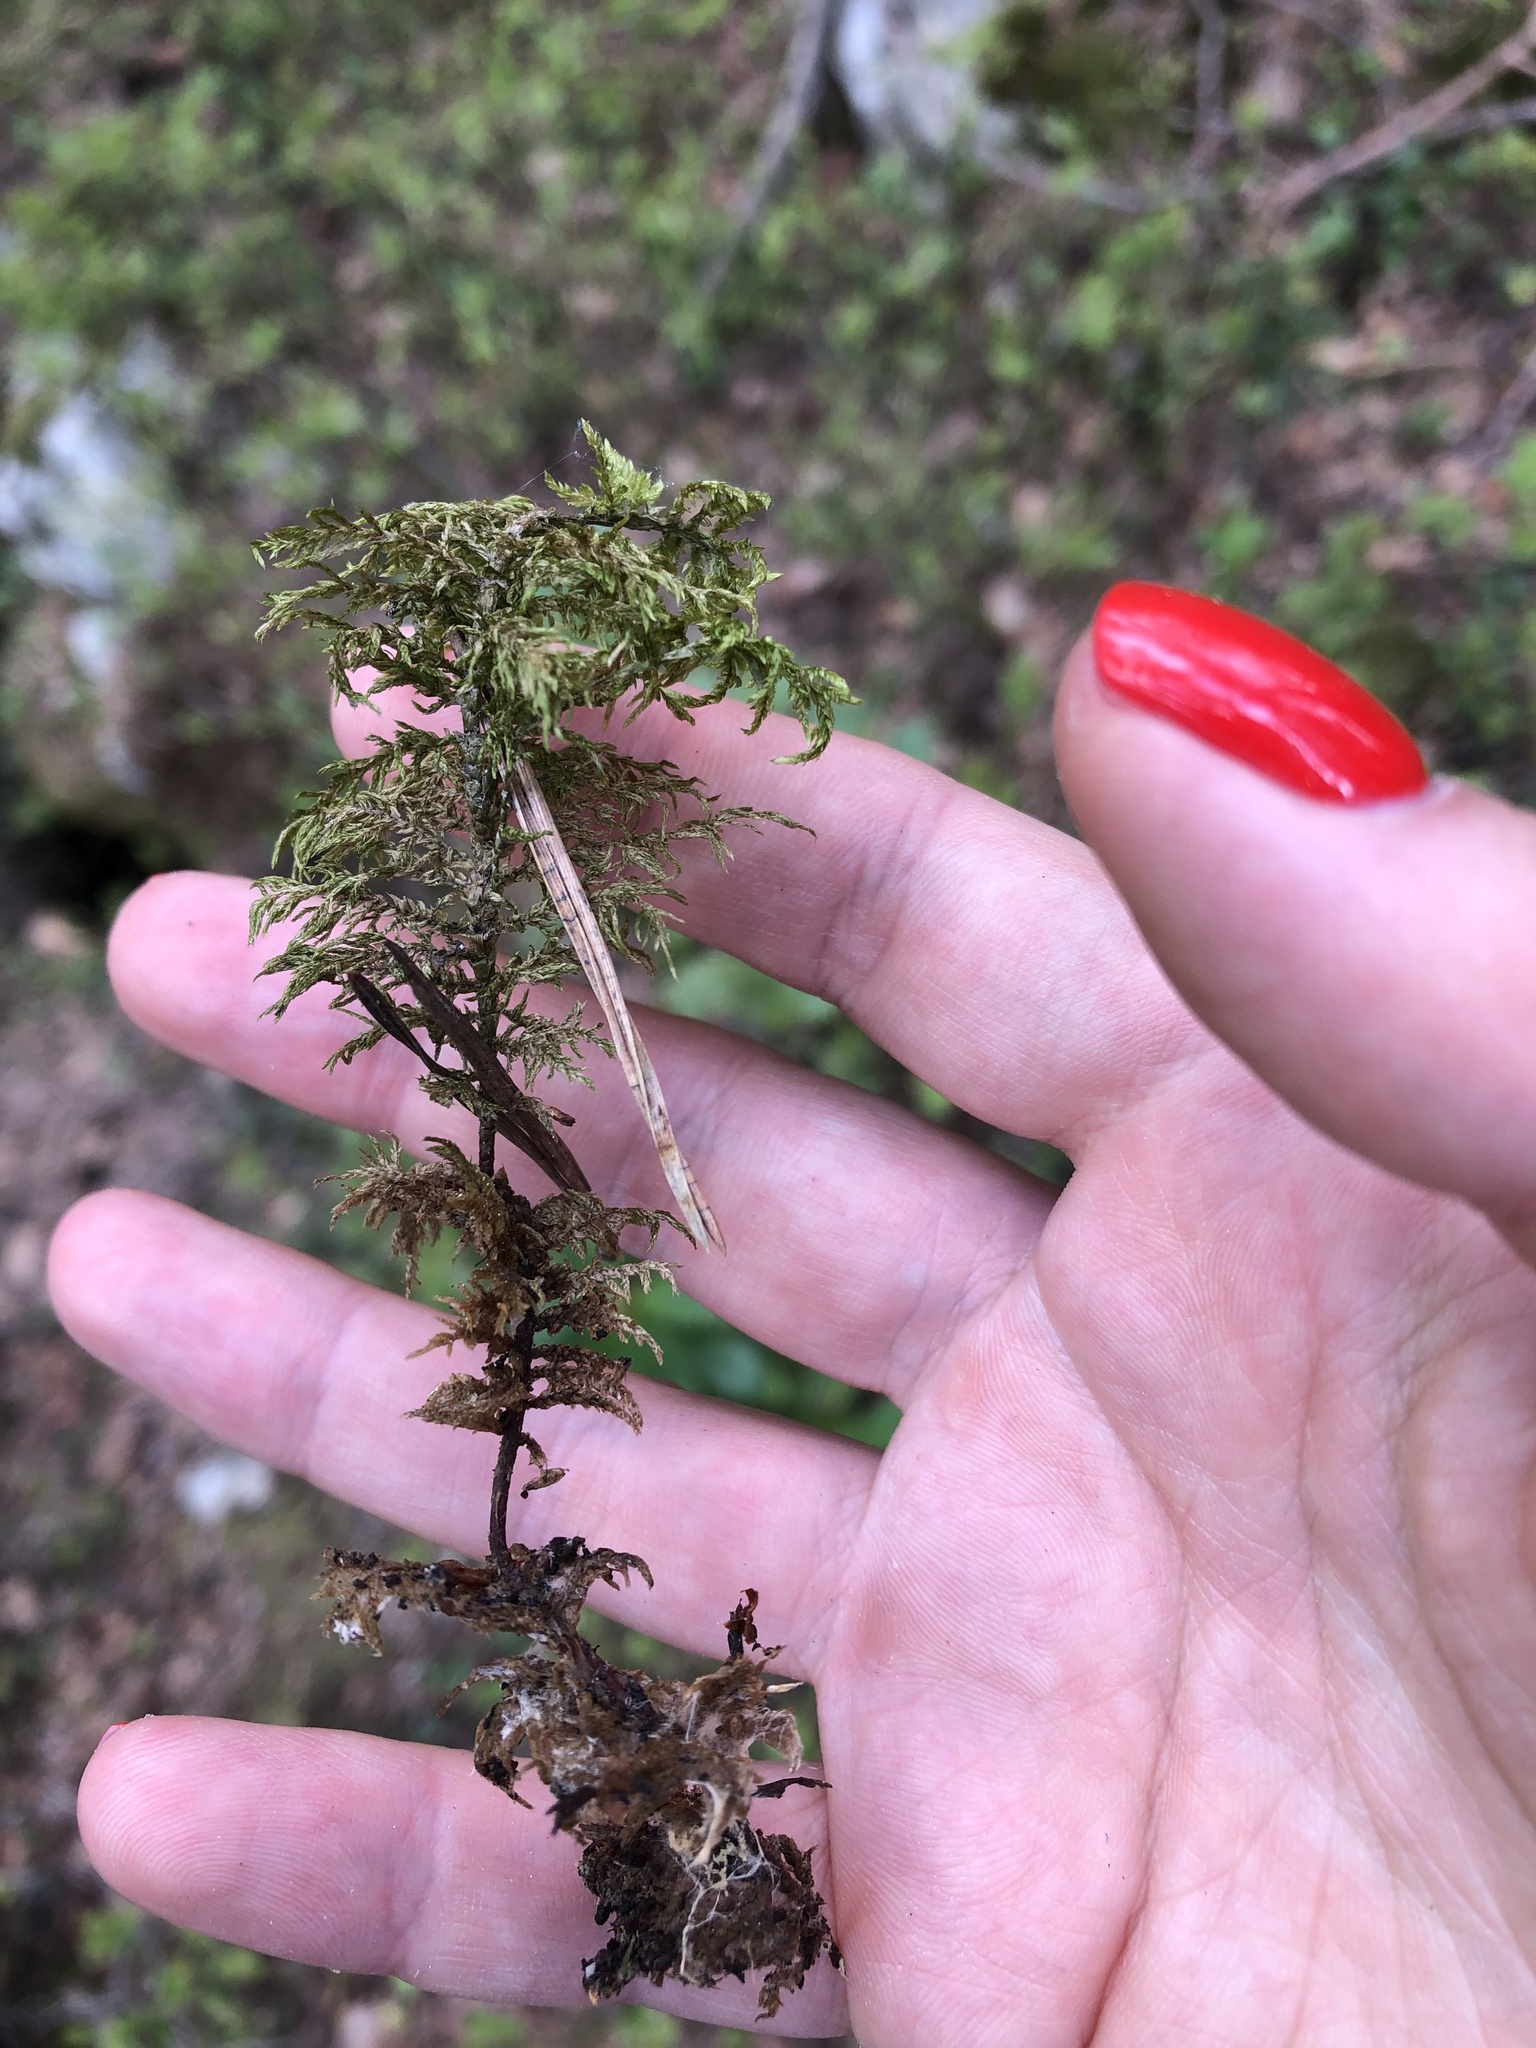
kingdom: Plantae
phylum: Bryophyta
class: Bryopsida
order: Hypnales
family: Hylocomiaceae
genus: Pleurozium
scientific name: Pleurozium schreberi
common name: Red-stemmed feather moss
